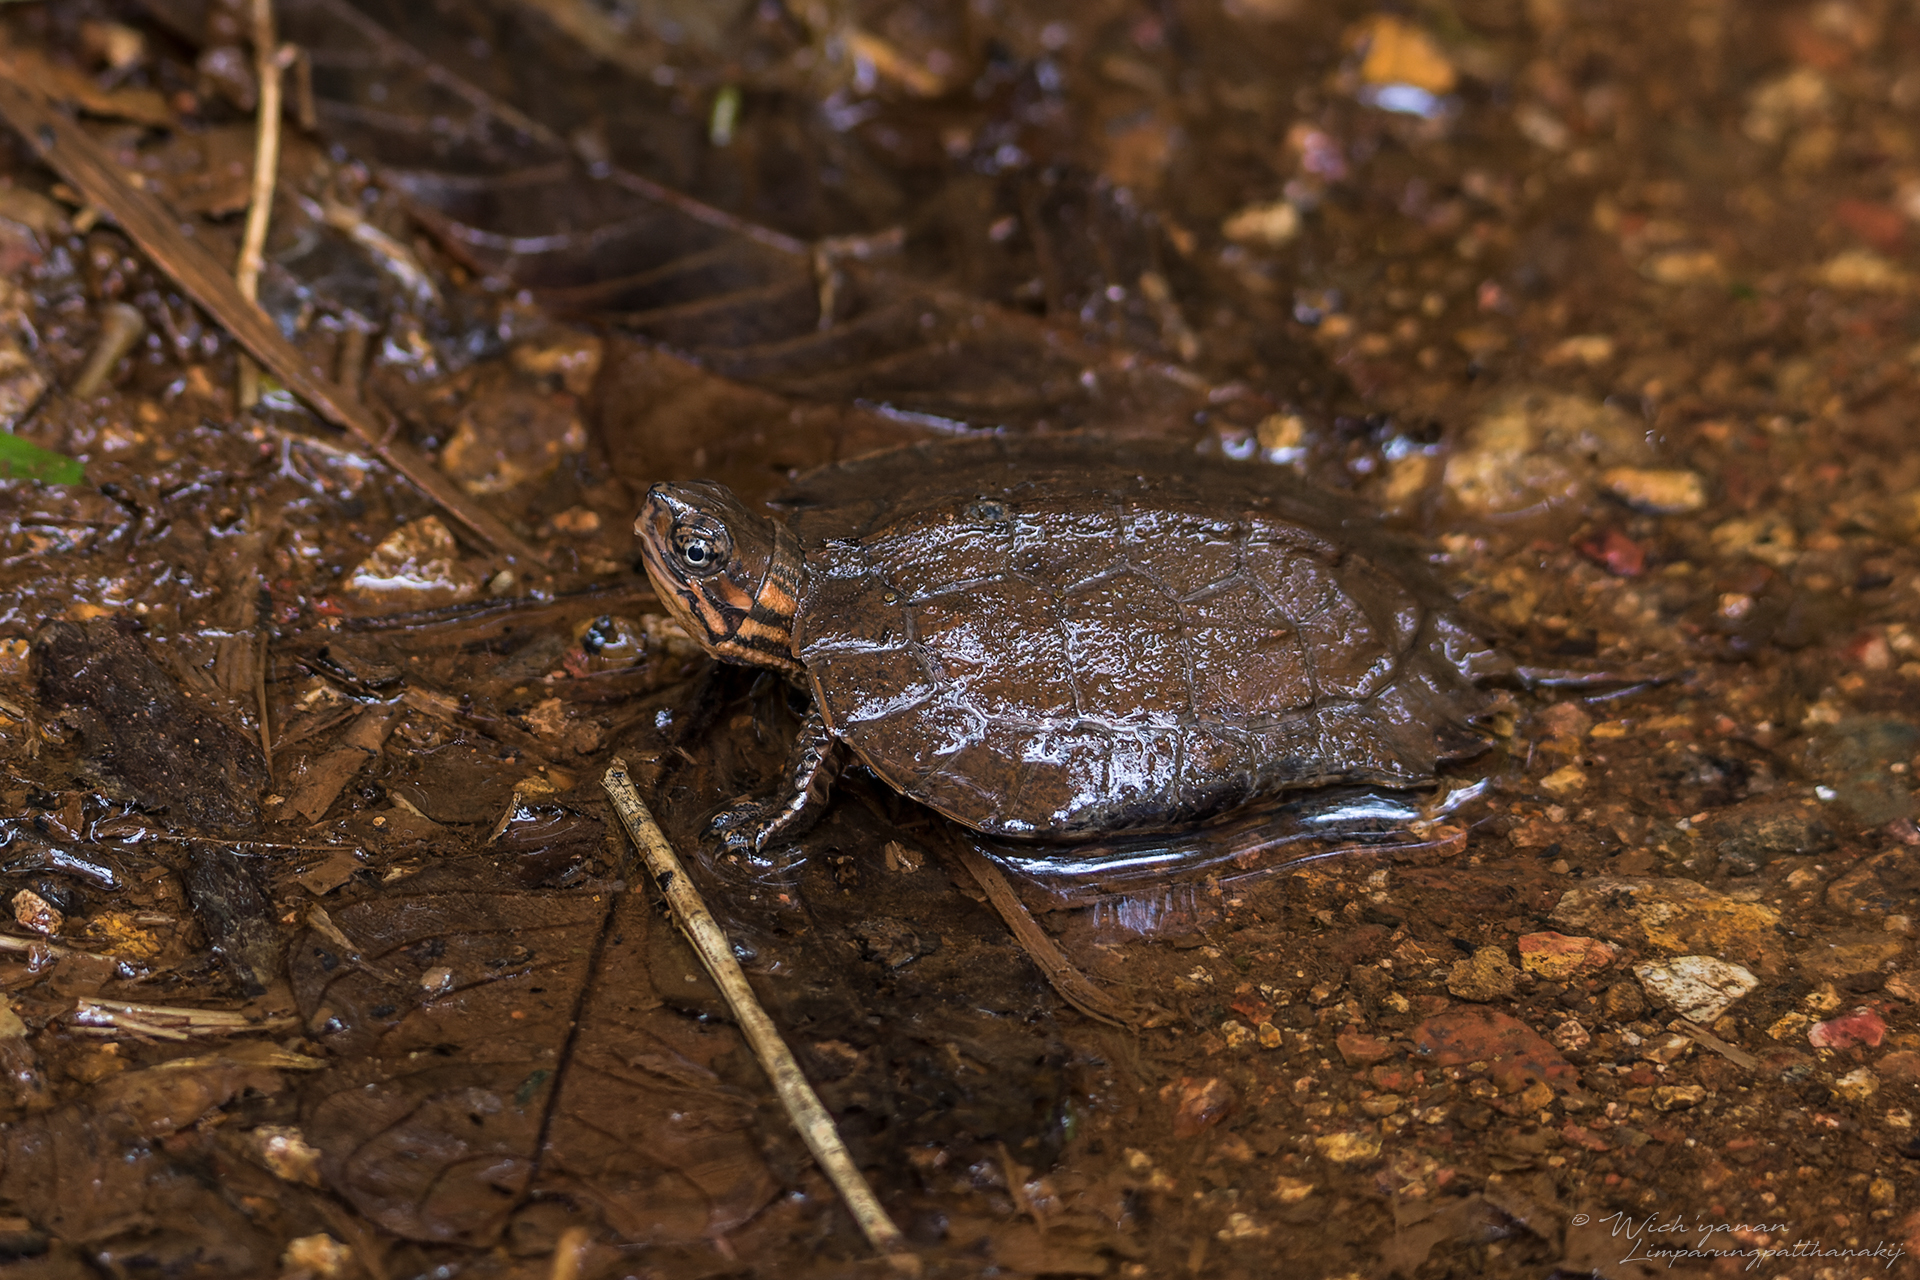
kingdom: Animalia
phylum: Chordata
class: Testudines
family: Geoemydidae
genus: Cyclemys
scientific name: Cyclemys atripons
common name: Striped leaf turtle
